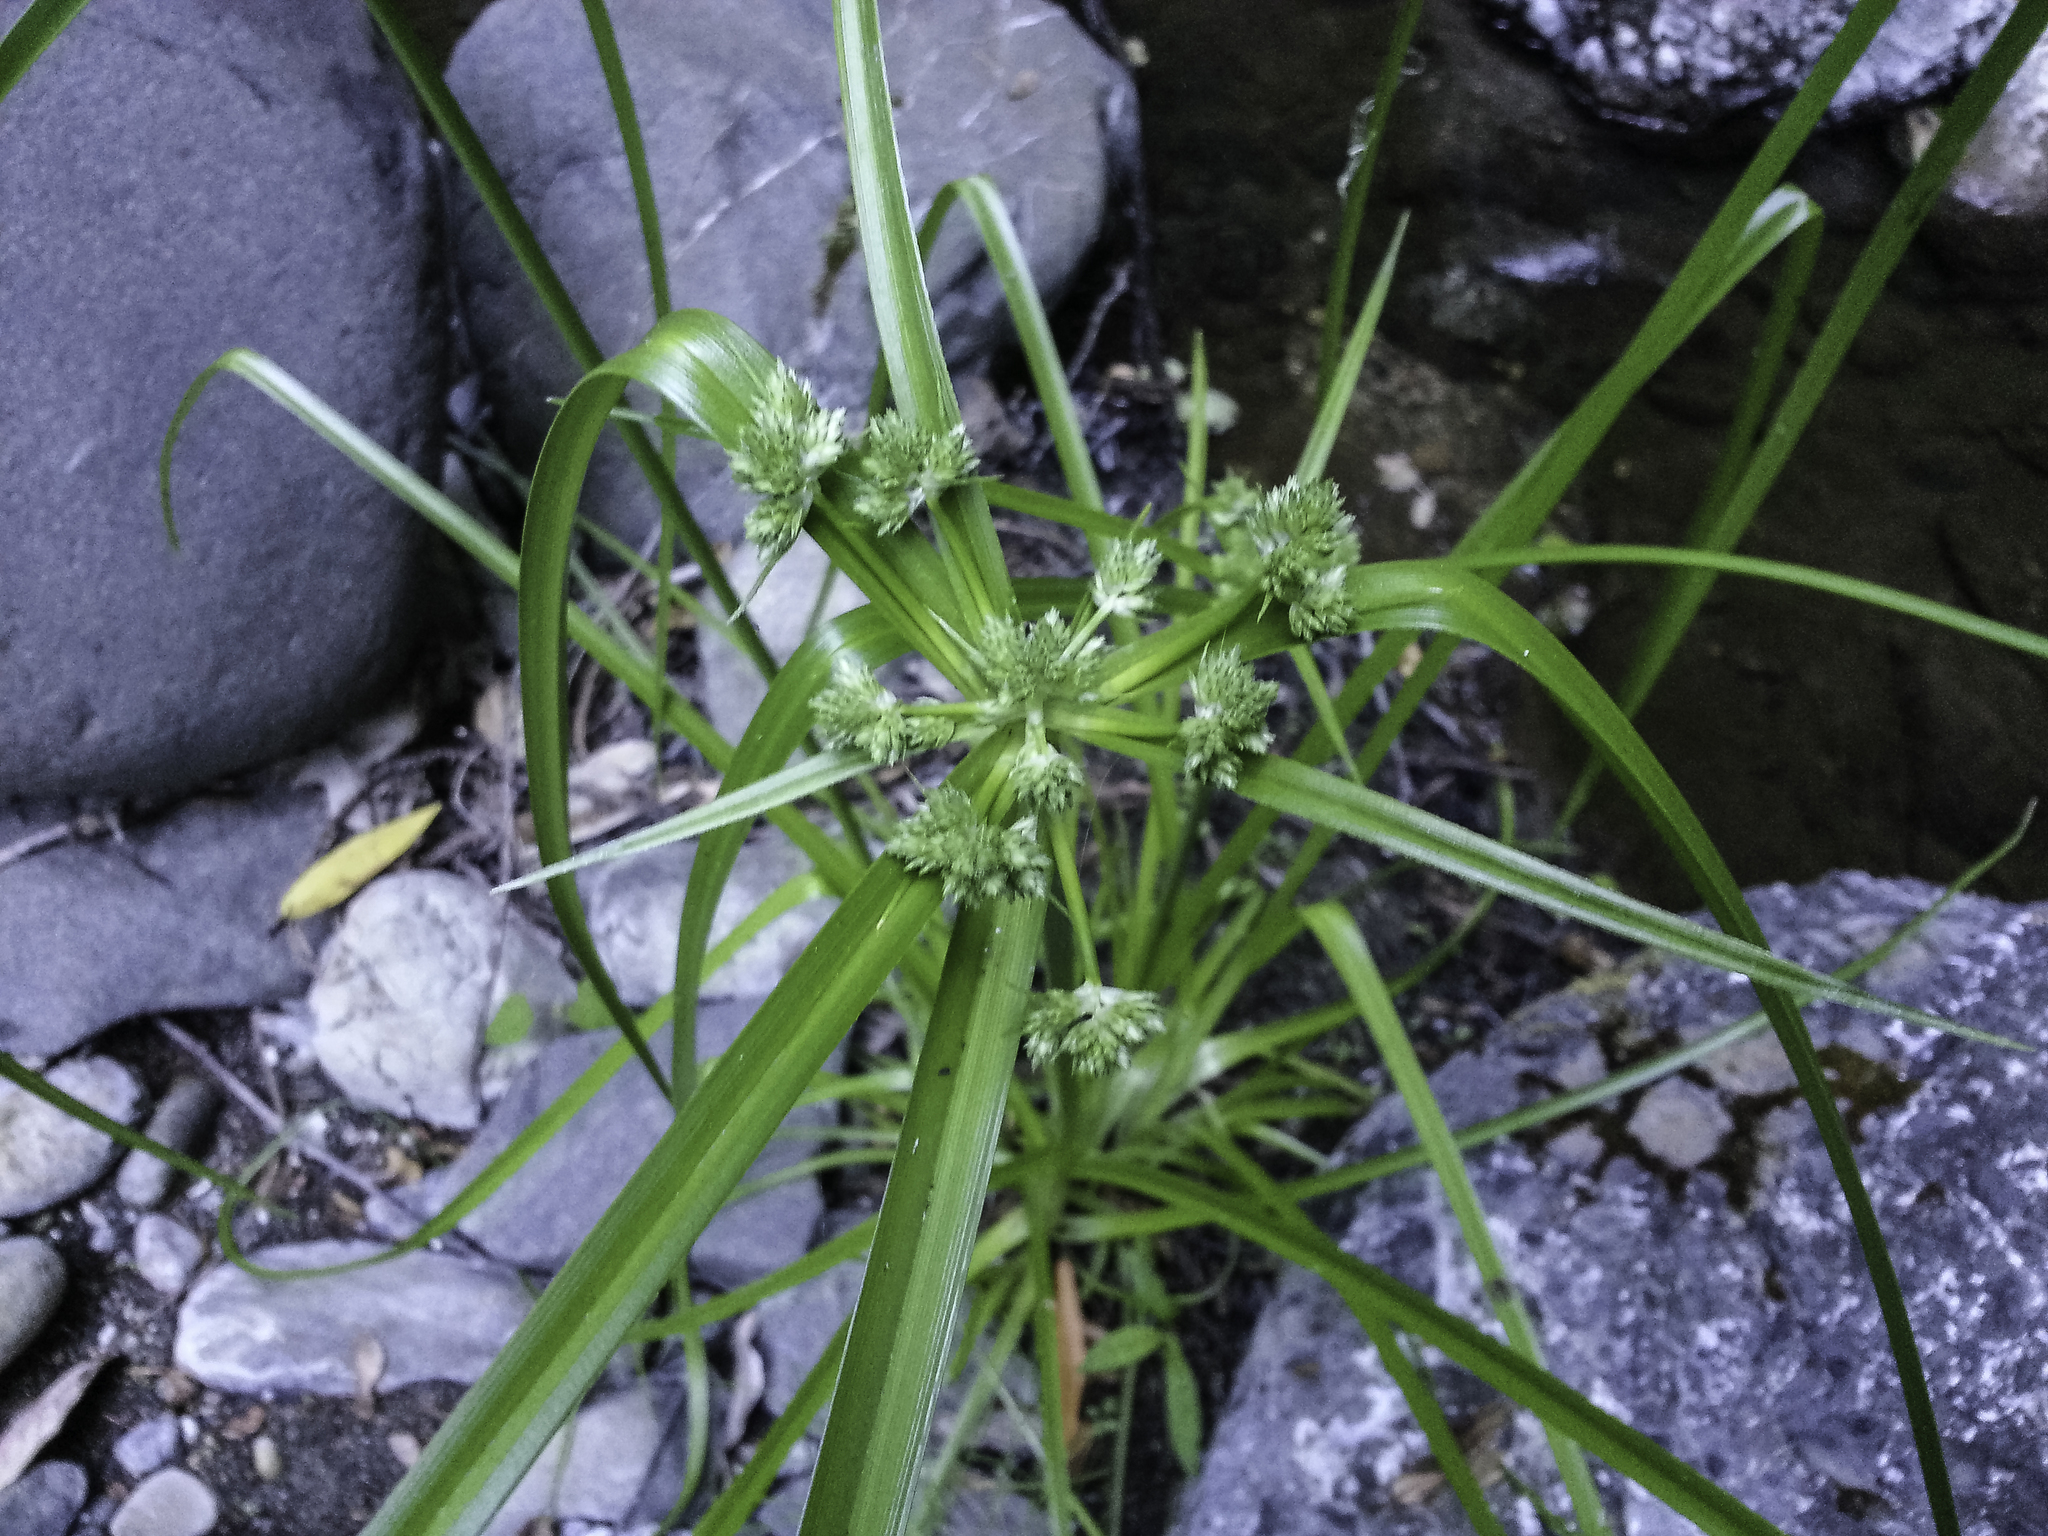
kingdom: Plantae
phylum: Tracheophyta
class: Liliopsida
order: Poales
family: Cyperaceae
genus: Cyperus
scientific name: Cyperus eragrostis
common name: Tall flatsedge
